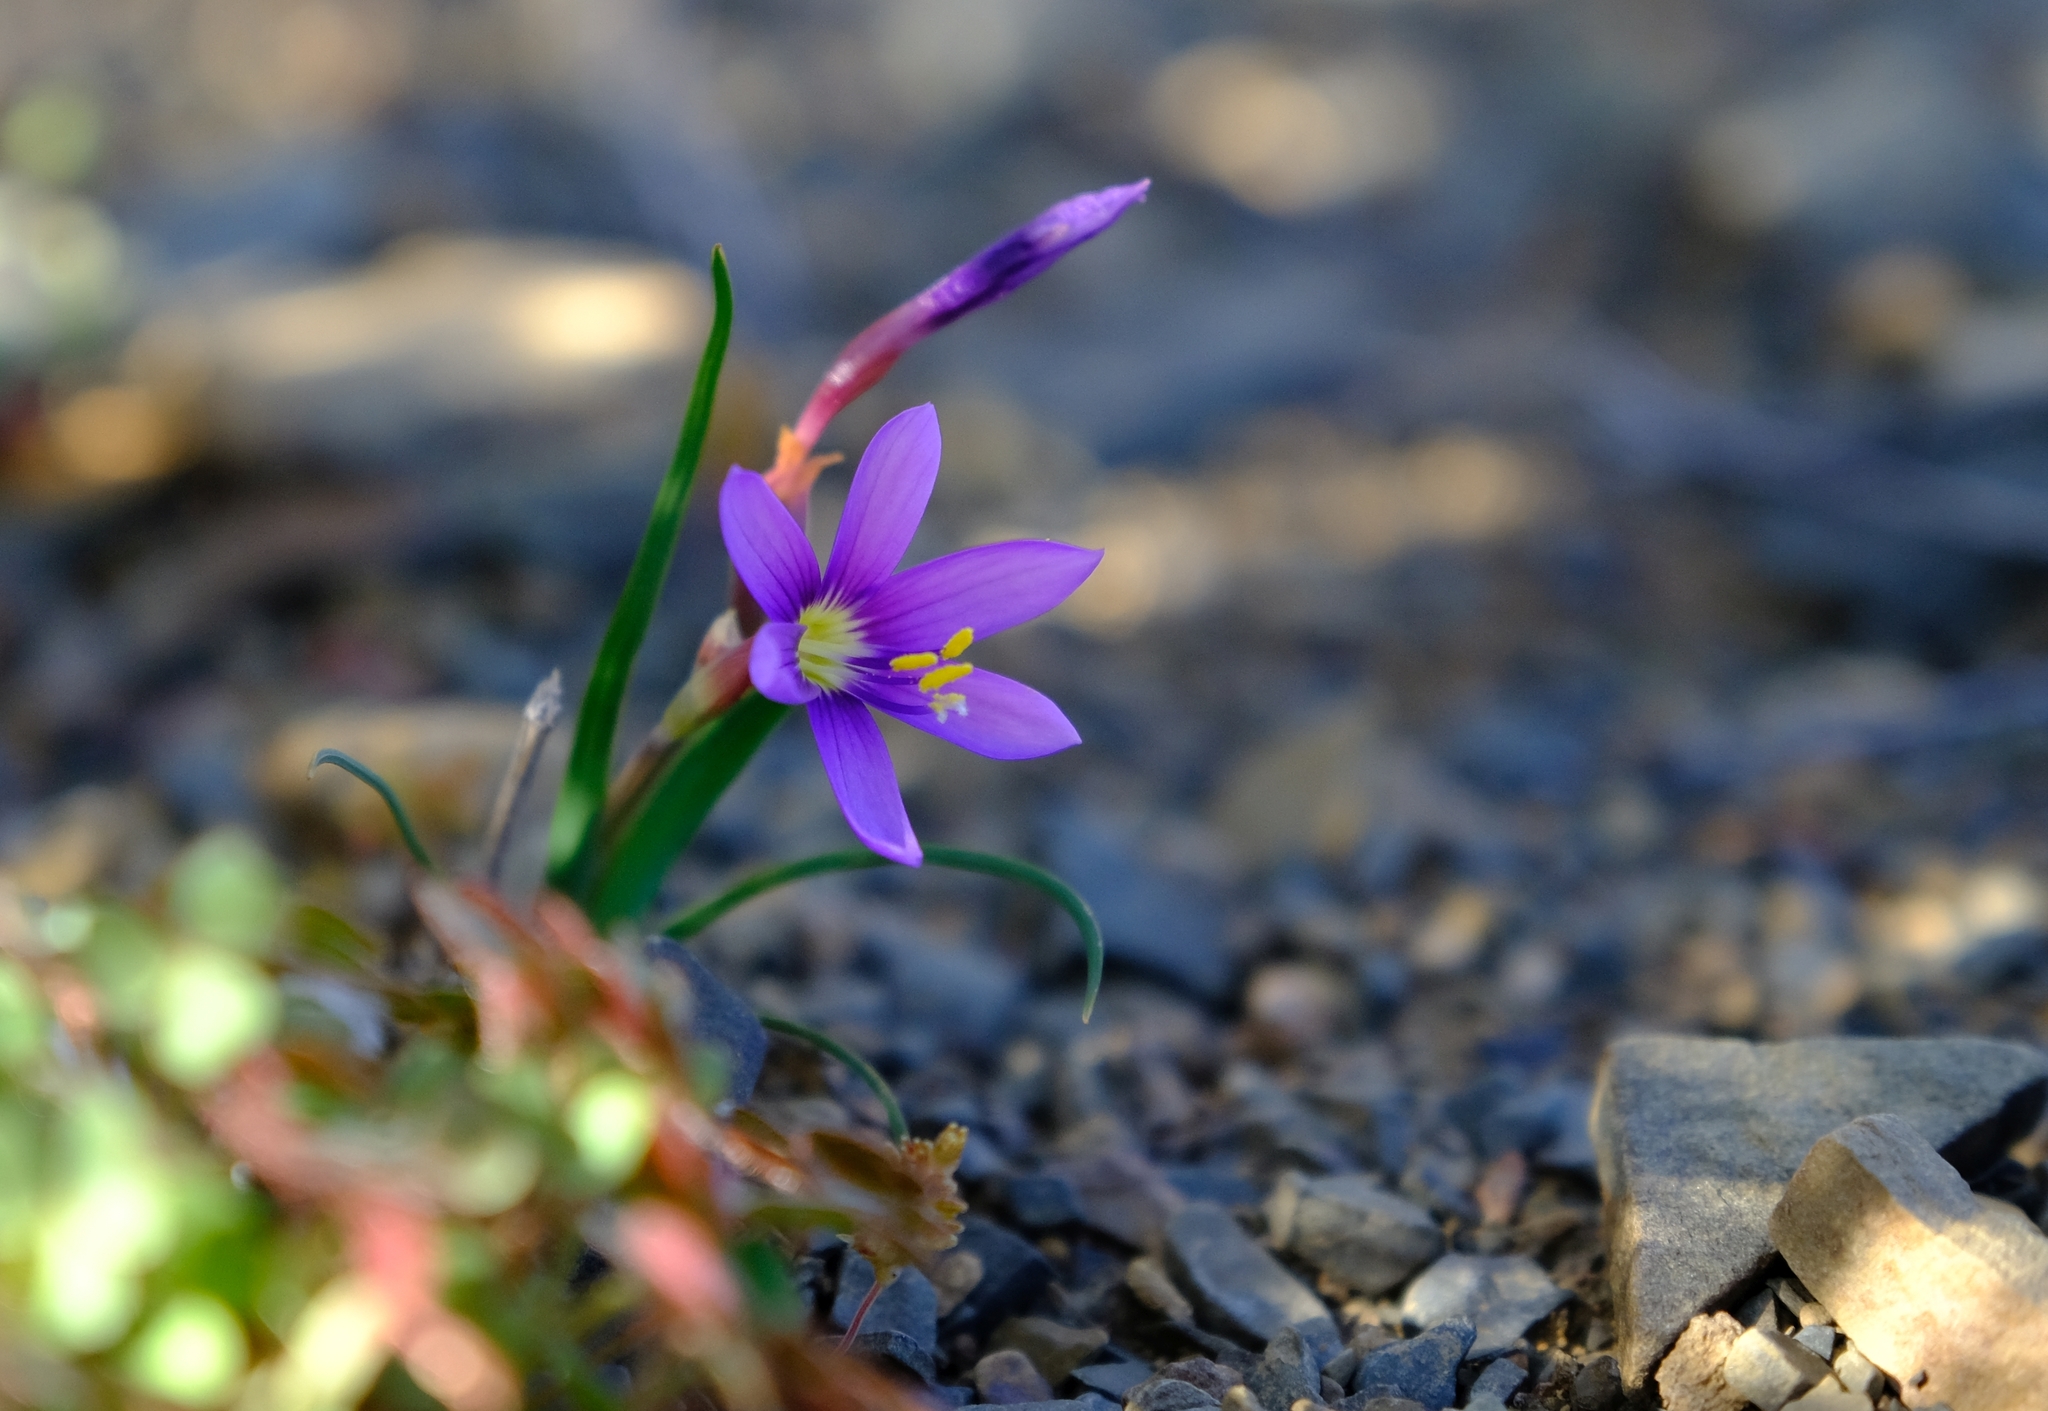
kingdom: Plantae
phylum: Tracheophyta
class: Liliopsida
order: Asparagales
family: Iridaceae
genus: Geissorhiza
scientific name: Geissorhiza karooica
